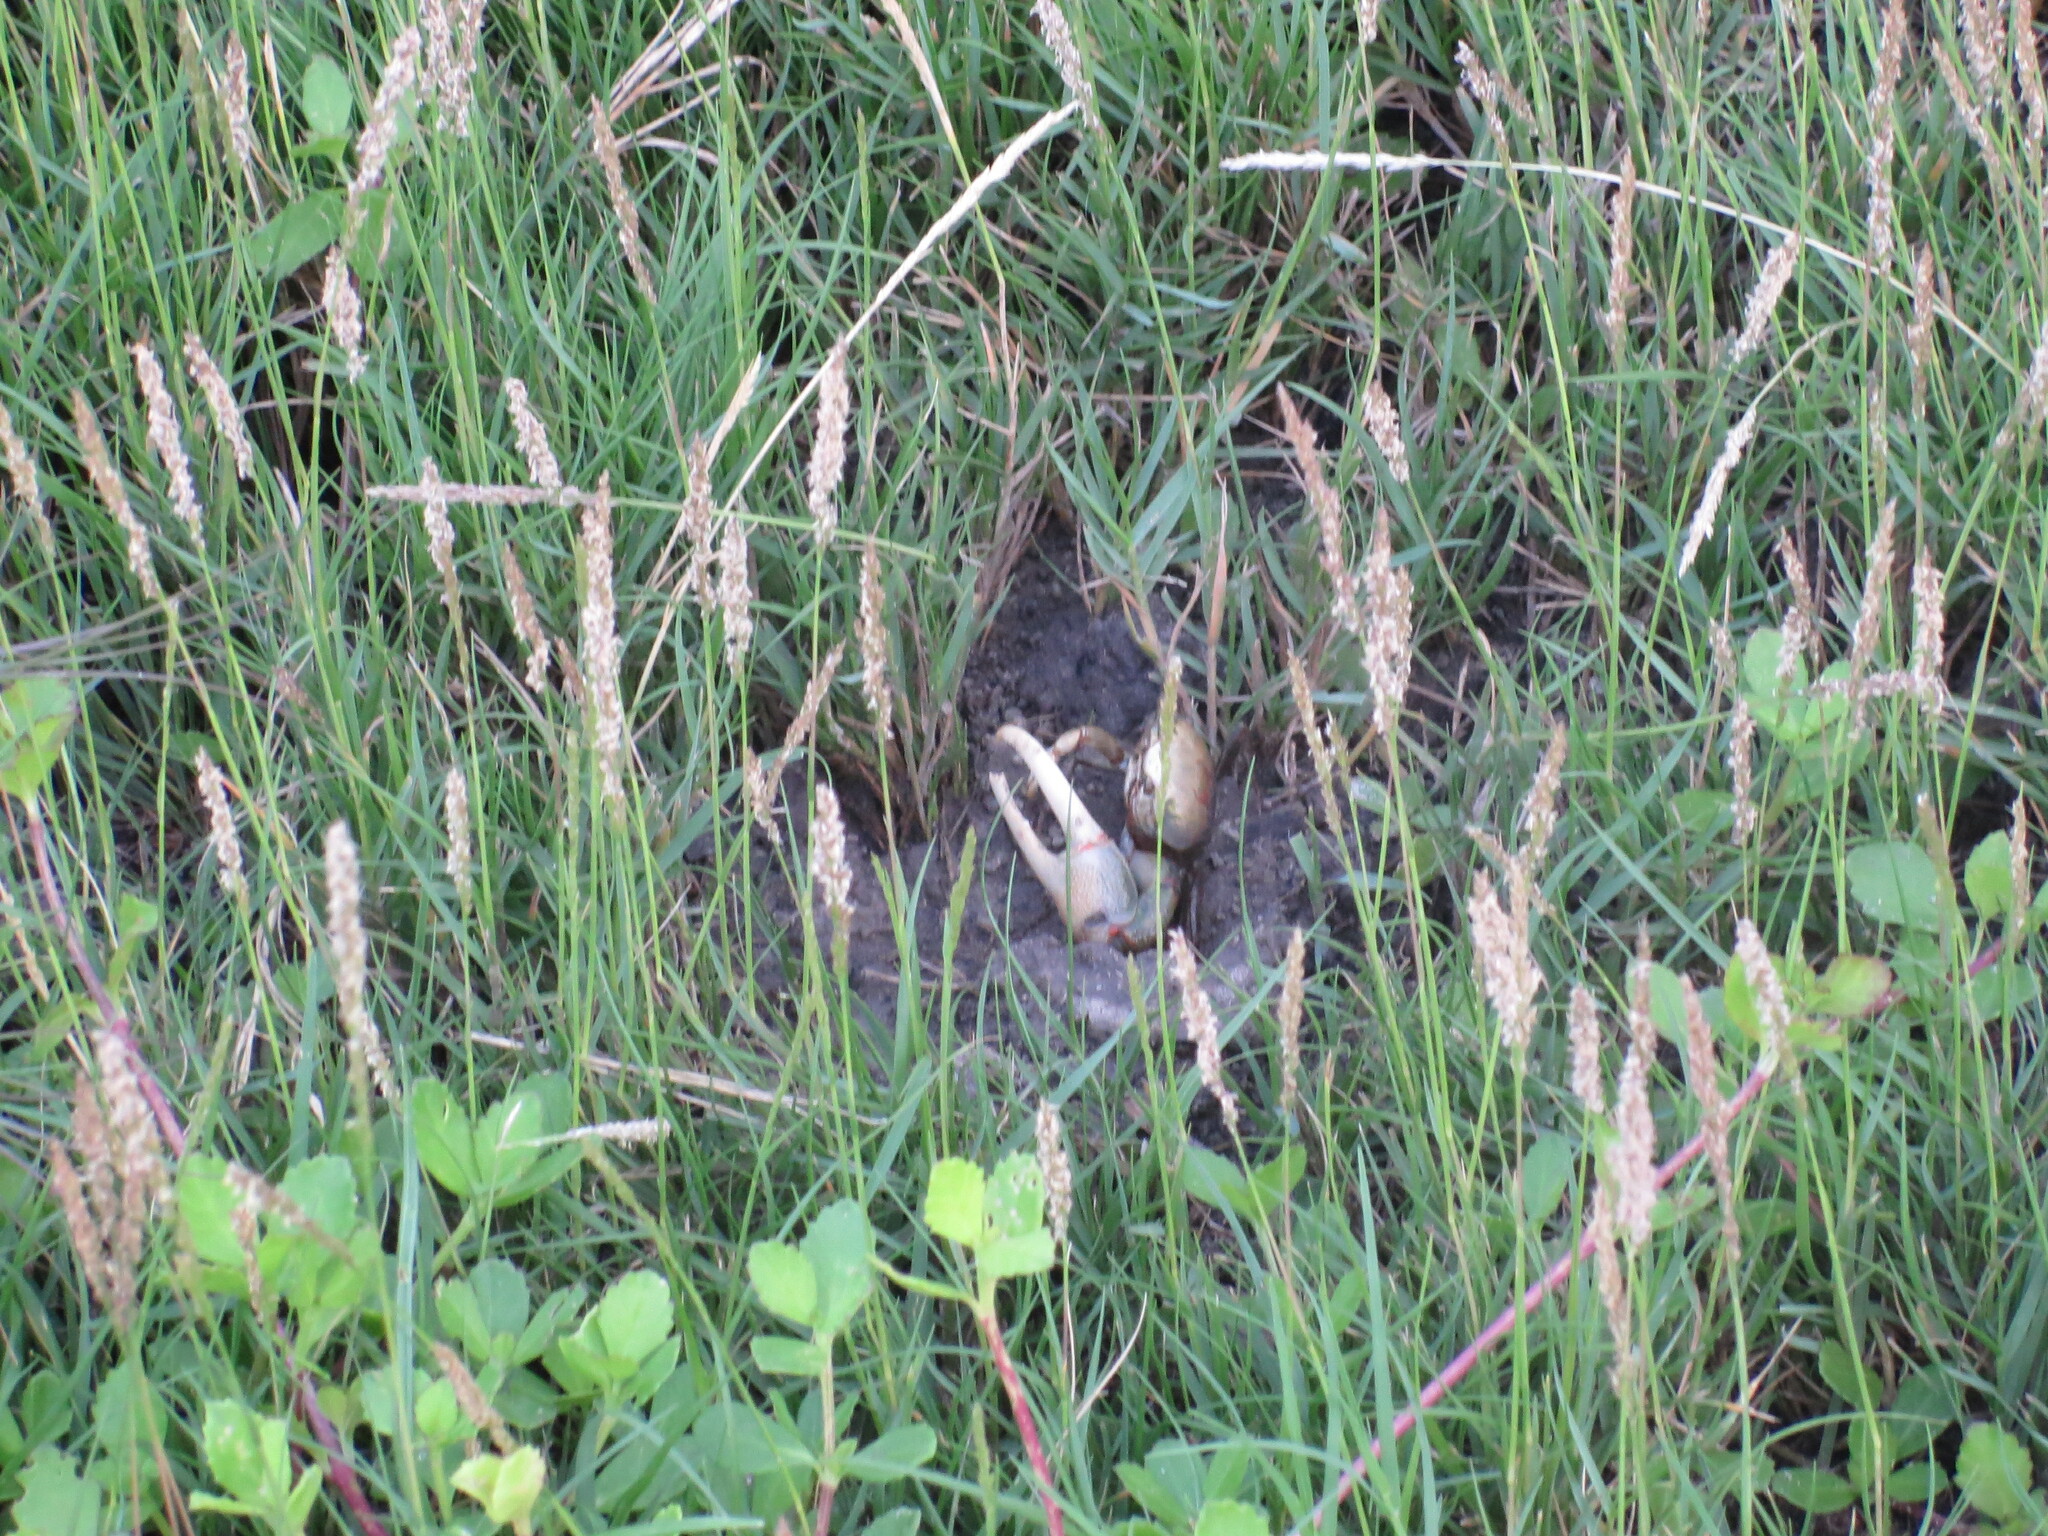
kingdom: Animalia
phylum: Arthropoda
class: Malacostraca
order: Decapoda
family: Ocypodidae
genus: Minuca
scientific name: Minuca minax
